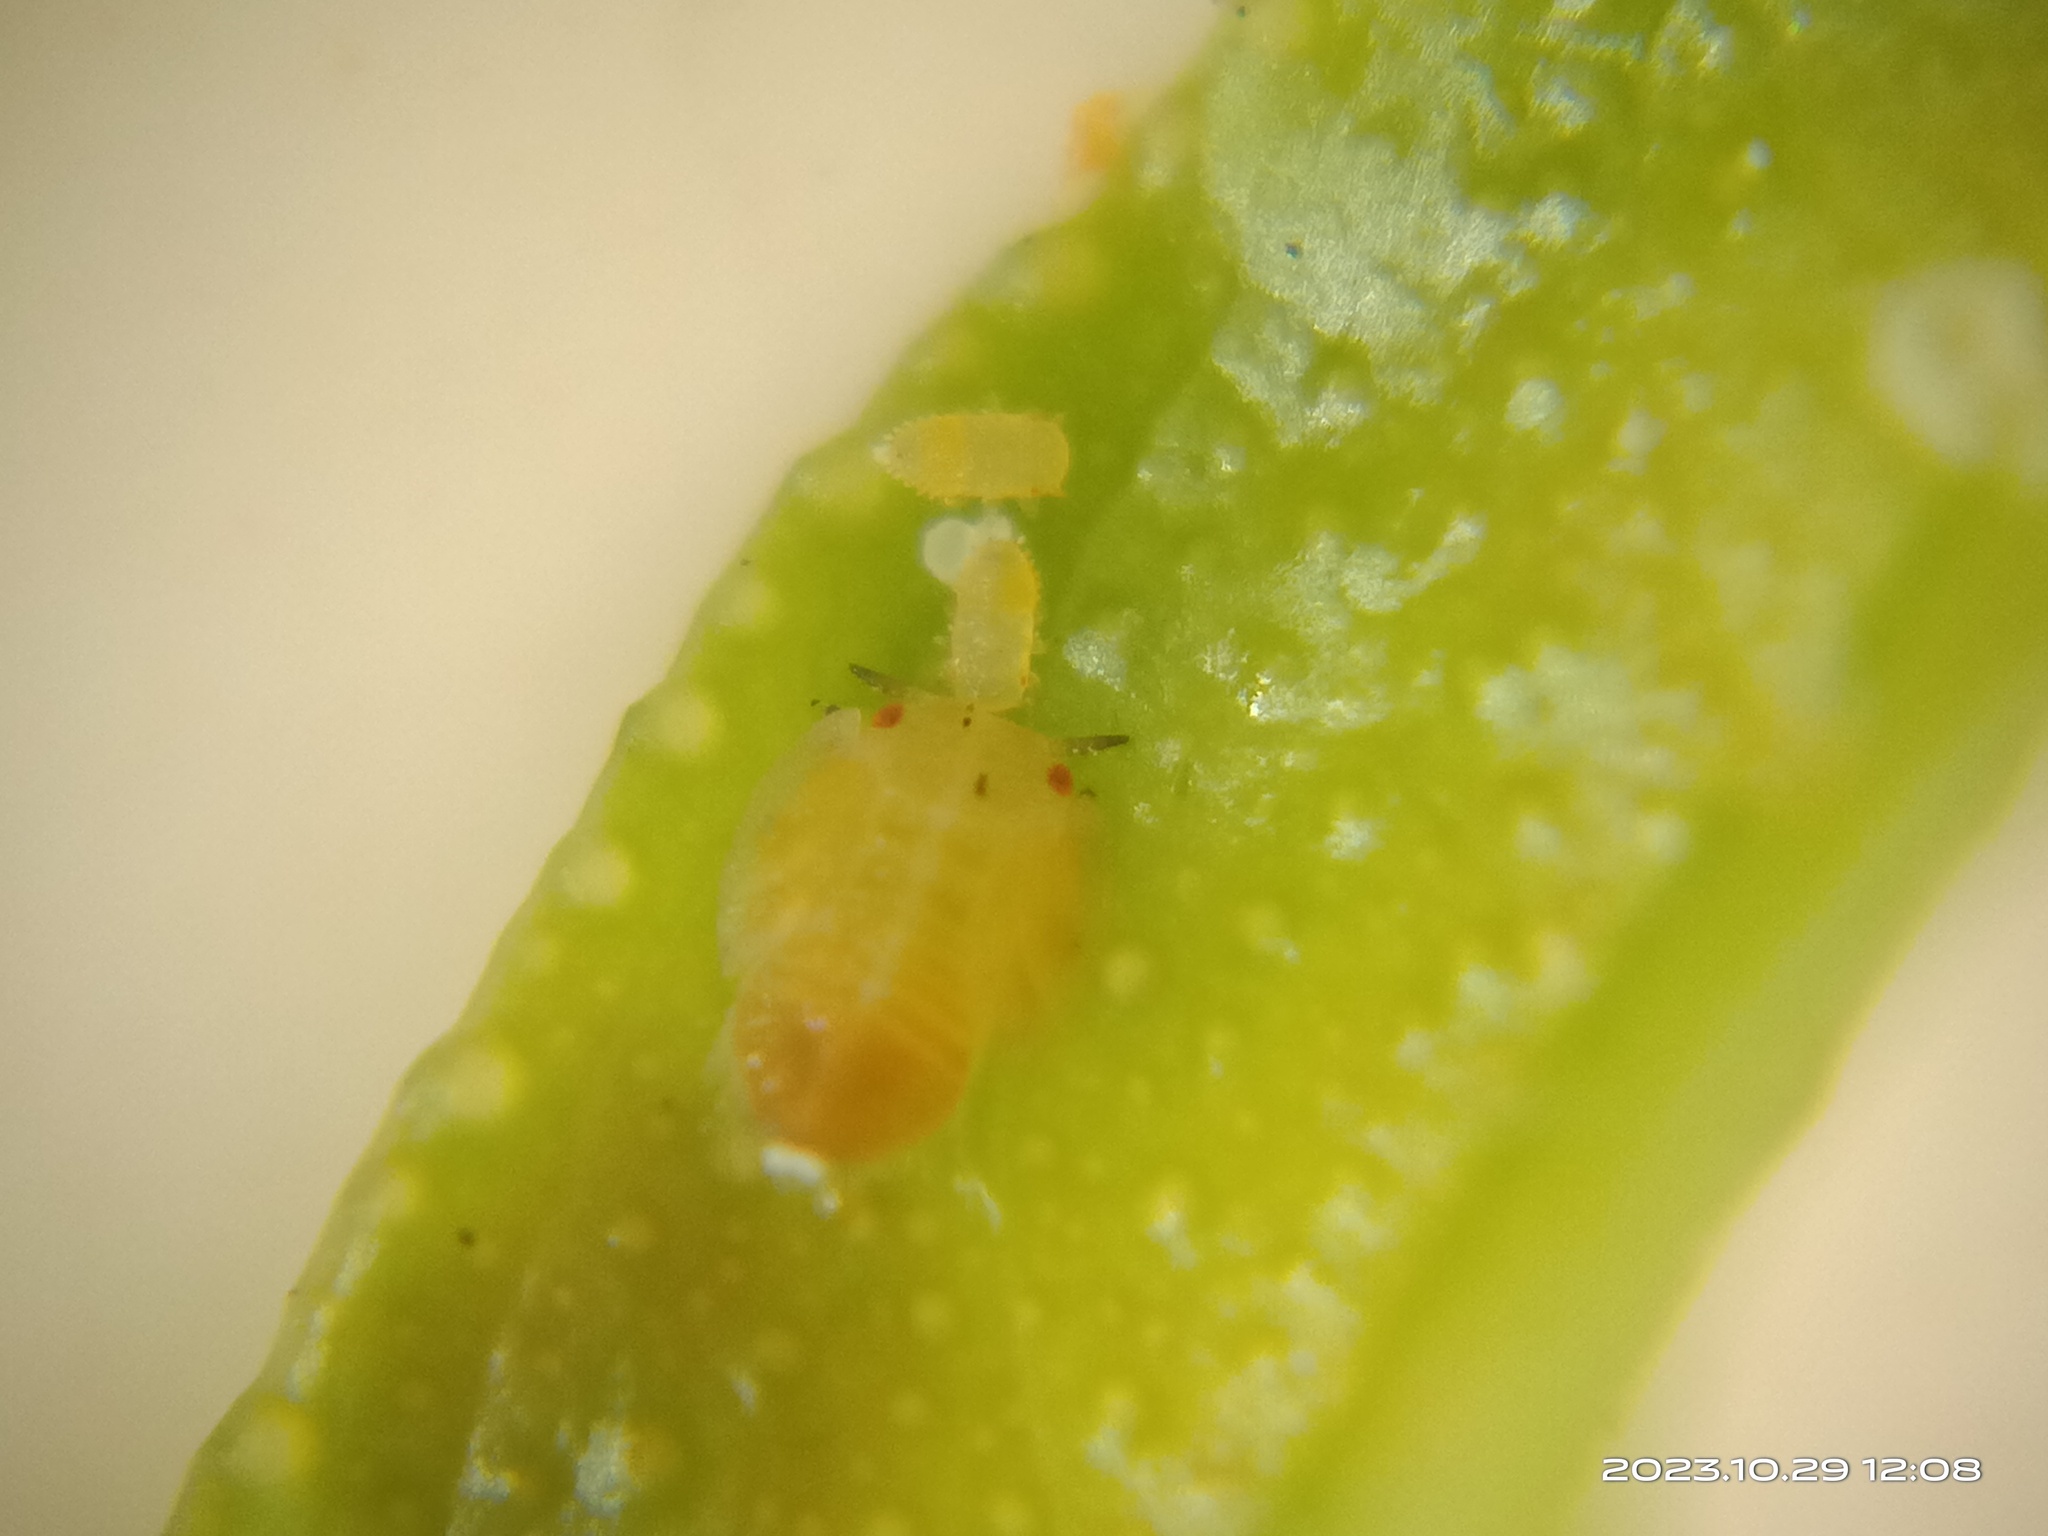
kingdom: Animalia
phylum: Arthropoda
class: Insecta
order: Hemiptera
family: Liviidae
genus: Diaphorina
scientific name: Diaphorina citri
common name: Asian citrus psyllid
